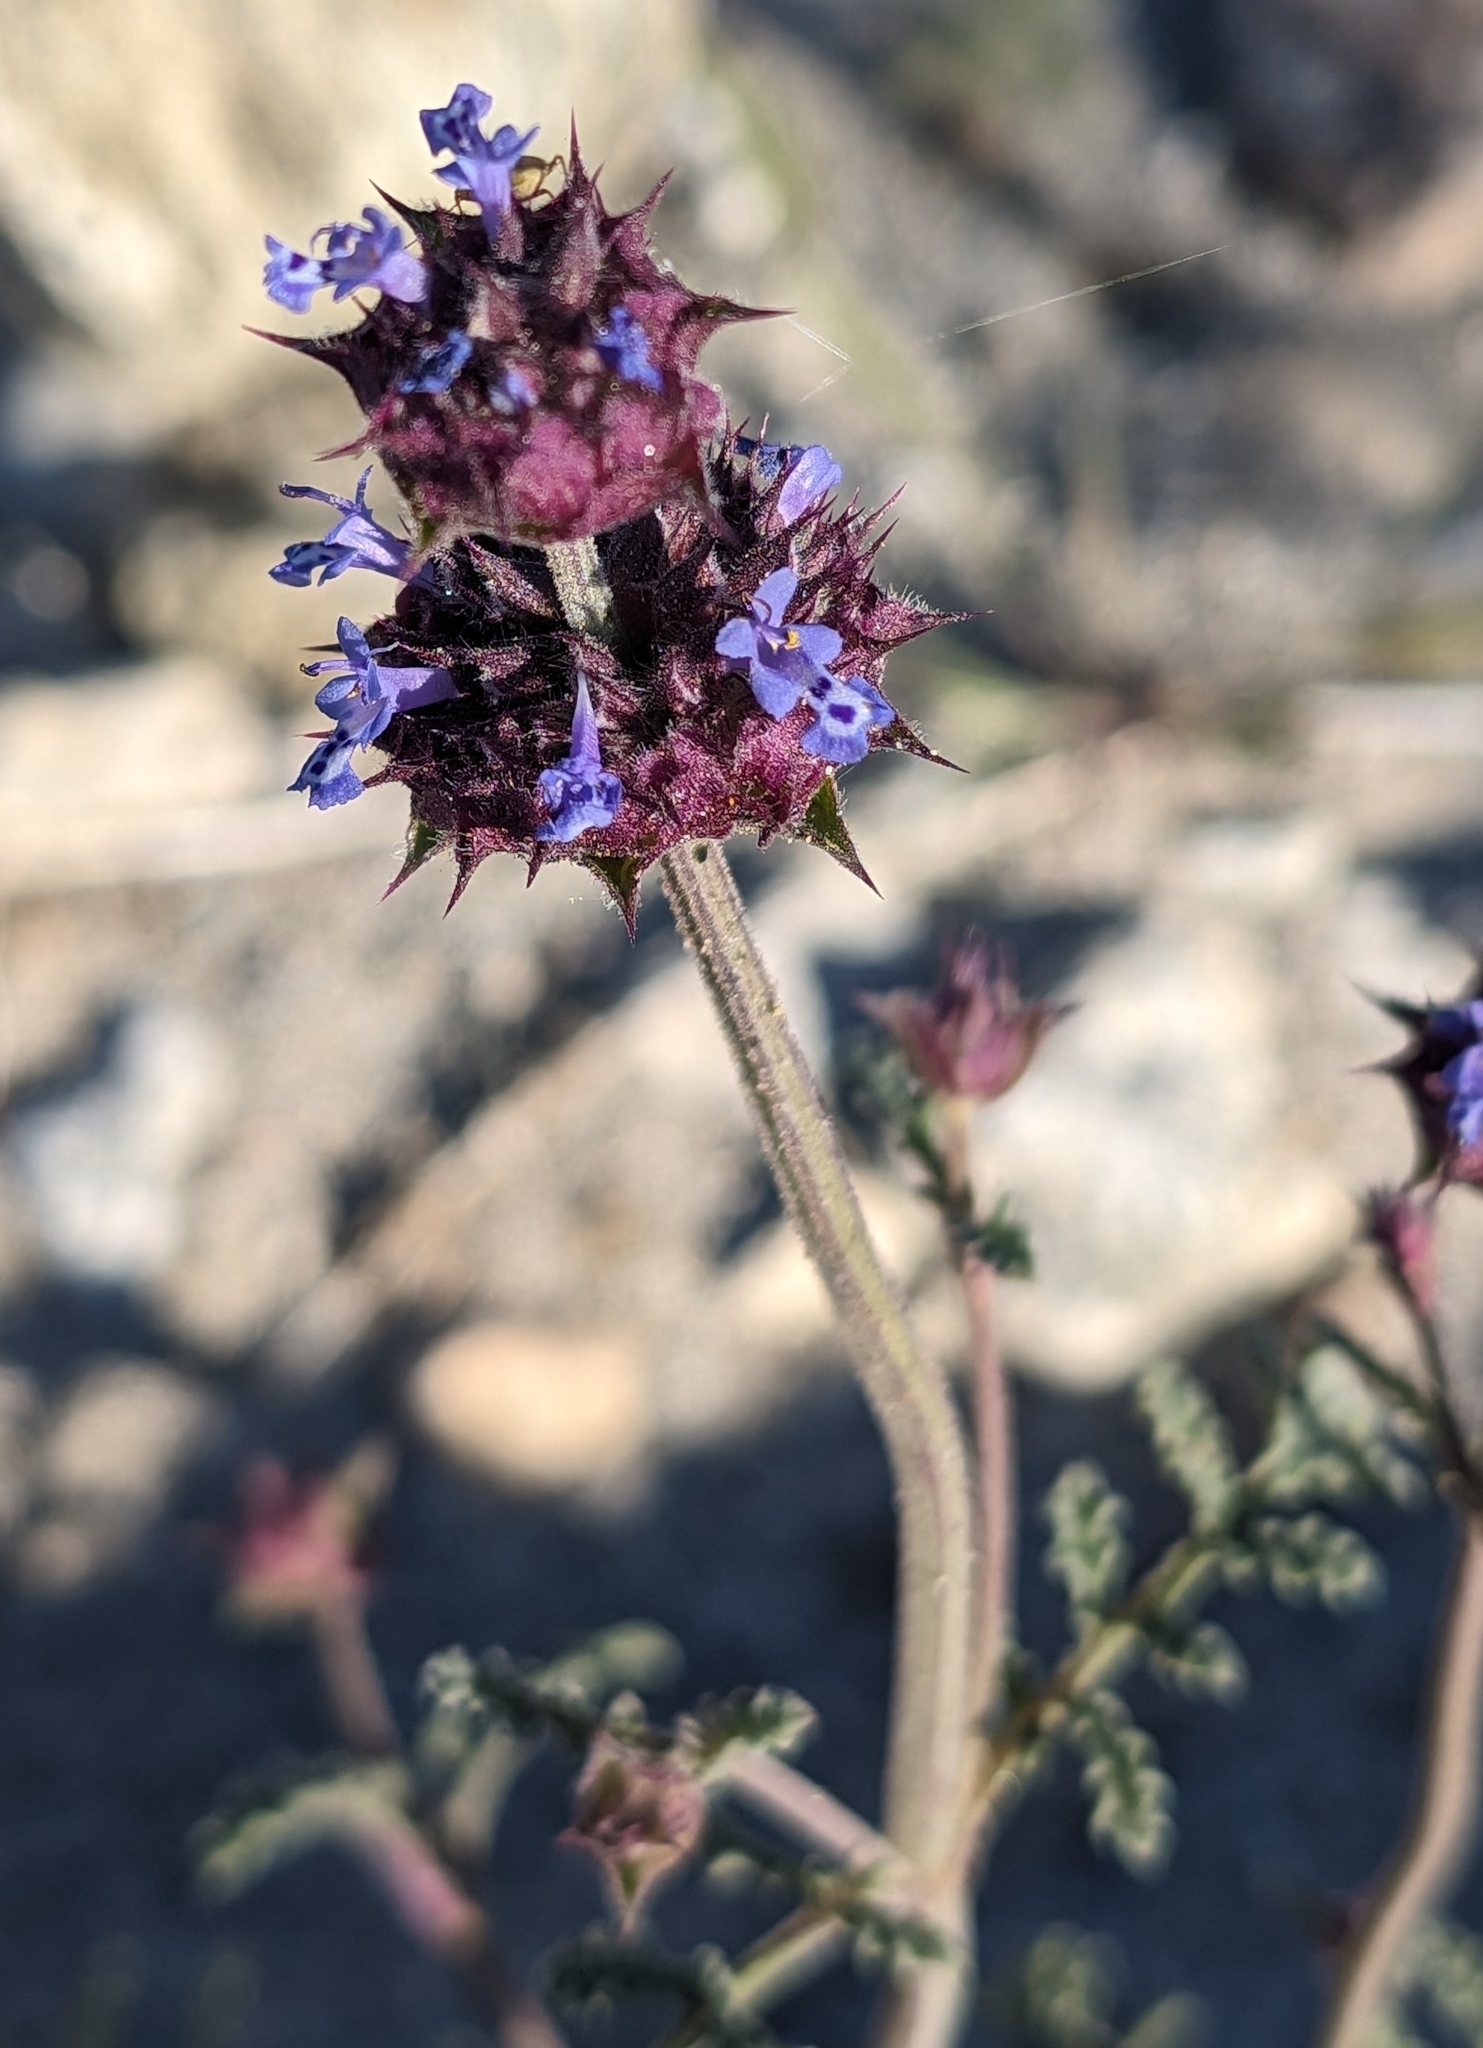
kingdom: Plantae
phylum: Tracheophyta
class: Magnoliopsida
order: Lamiales
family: Lamiaceae
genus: Salvia
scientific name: Salvia columbariae
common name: Chia
